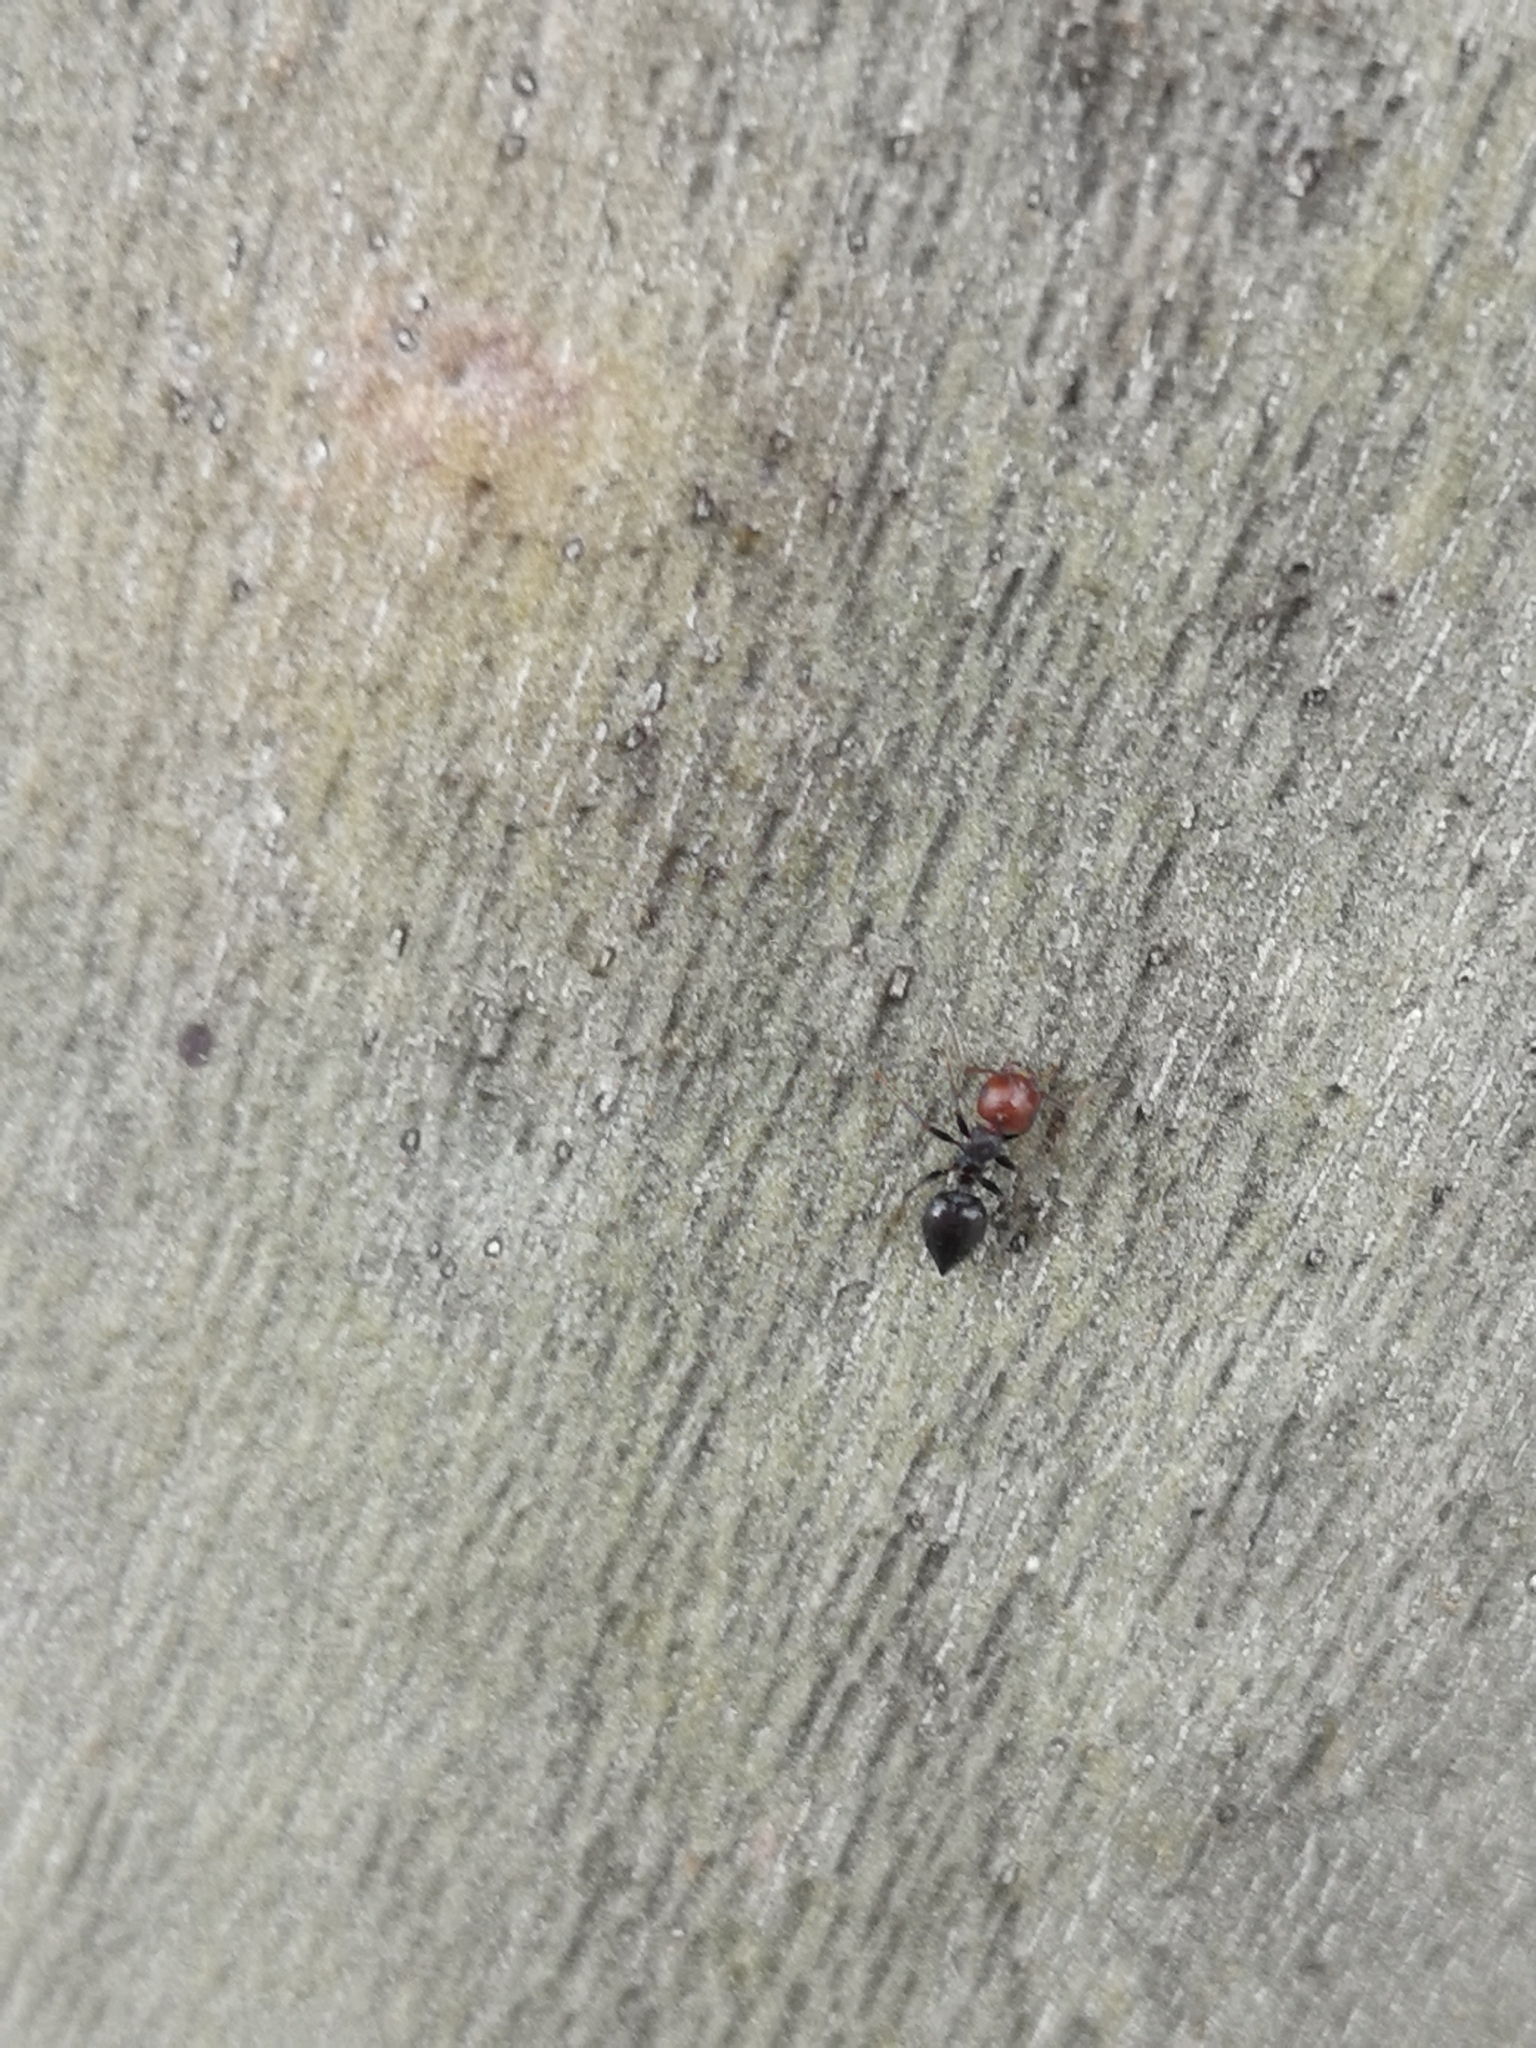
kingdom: Animalia
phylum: Arthropoda
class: Insecta
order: Hymenoptera
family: Formicidae
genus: Crematogaster
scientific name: Crematogaster scutellaris
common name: Fourmi du liège
